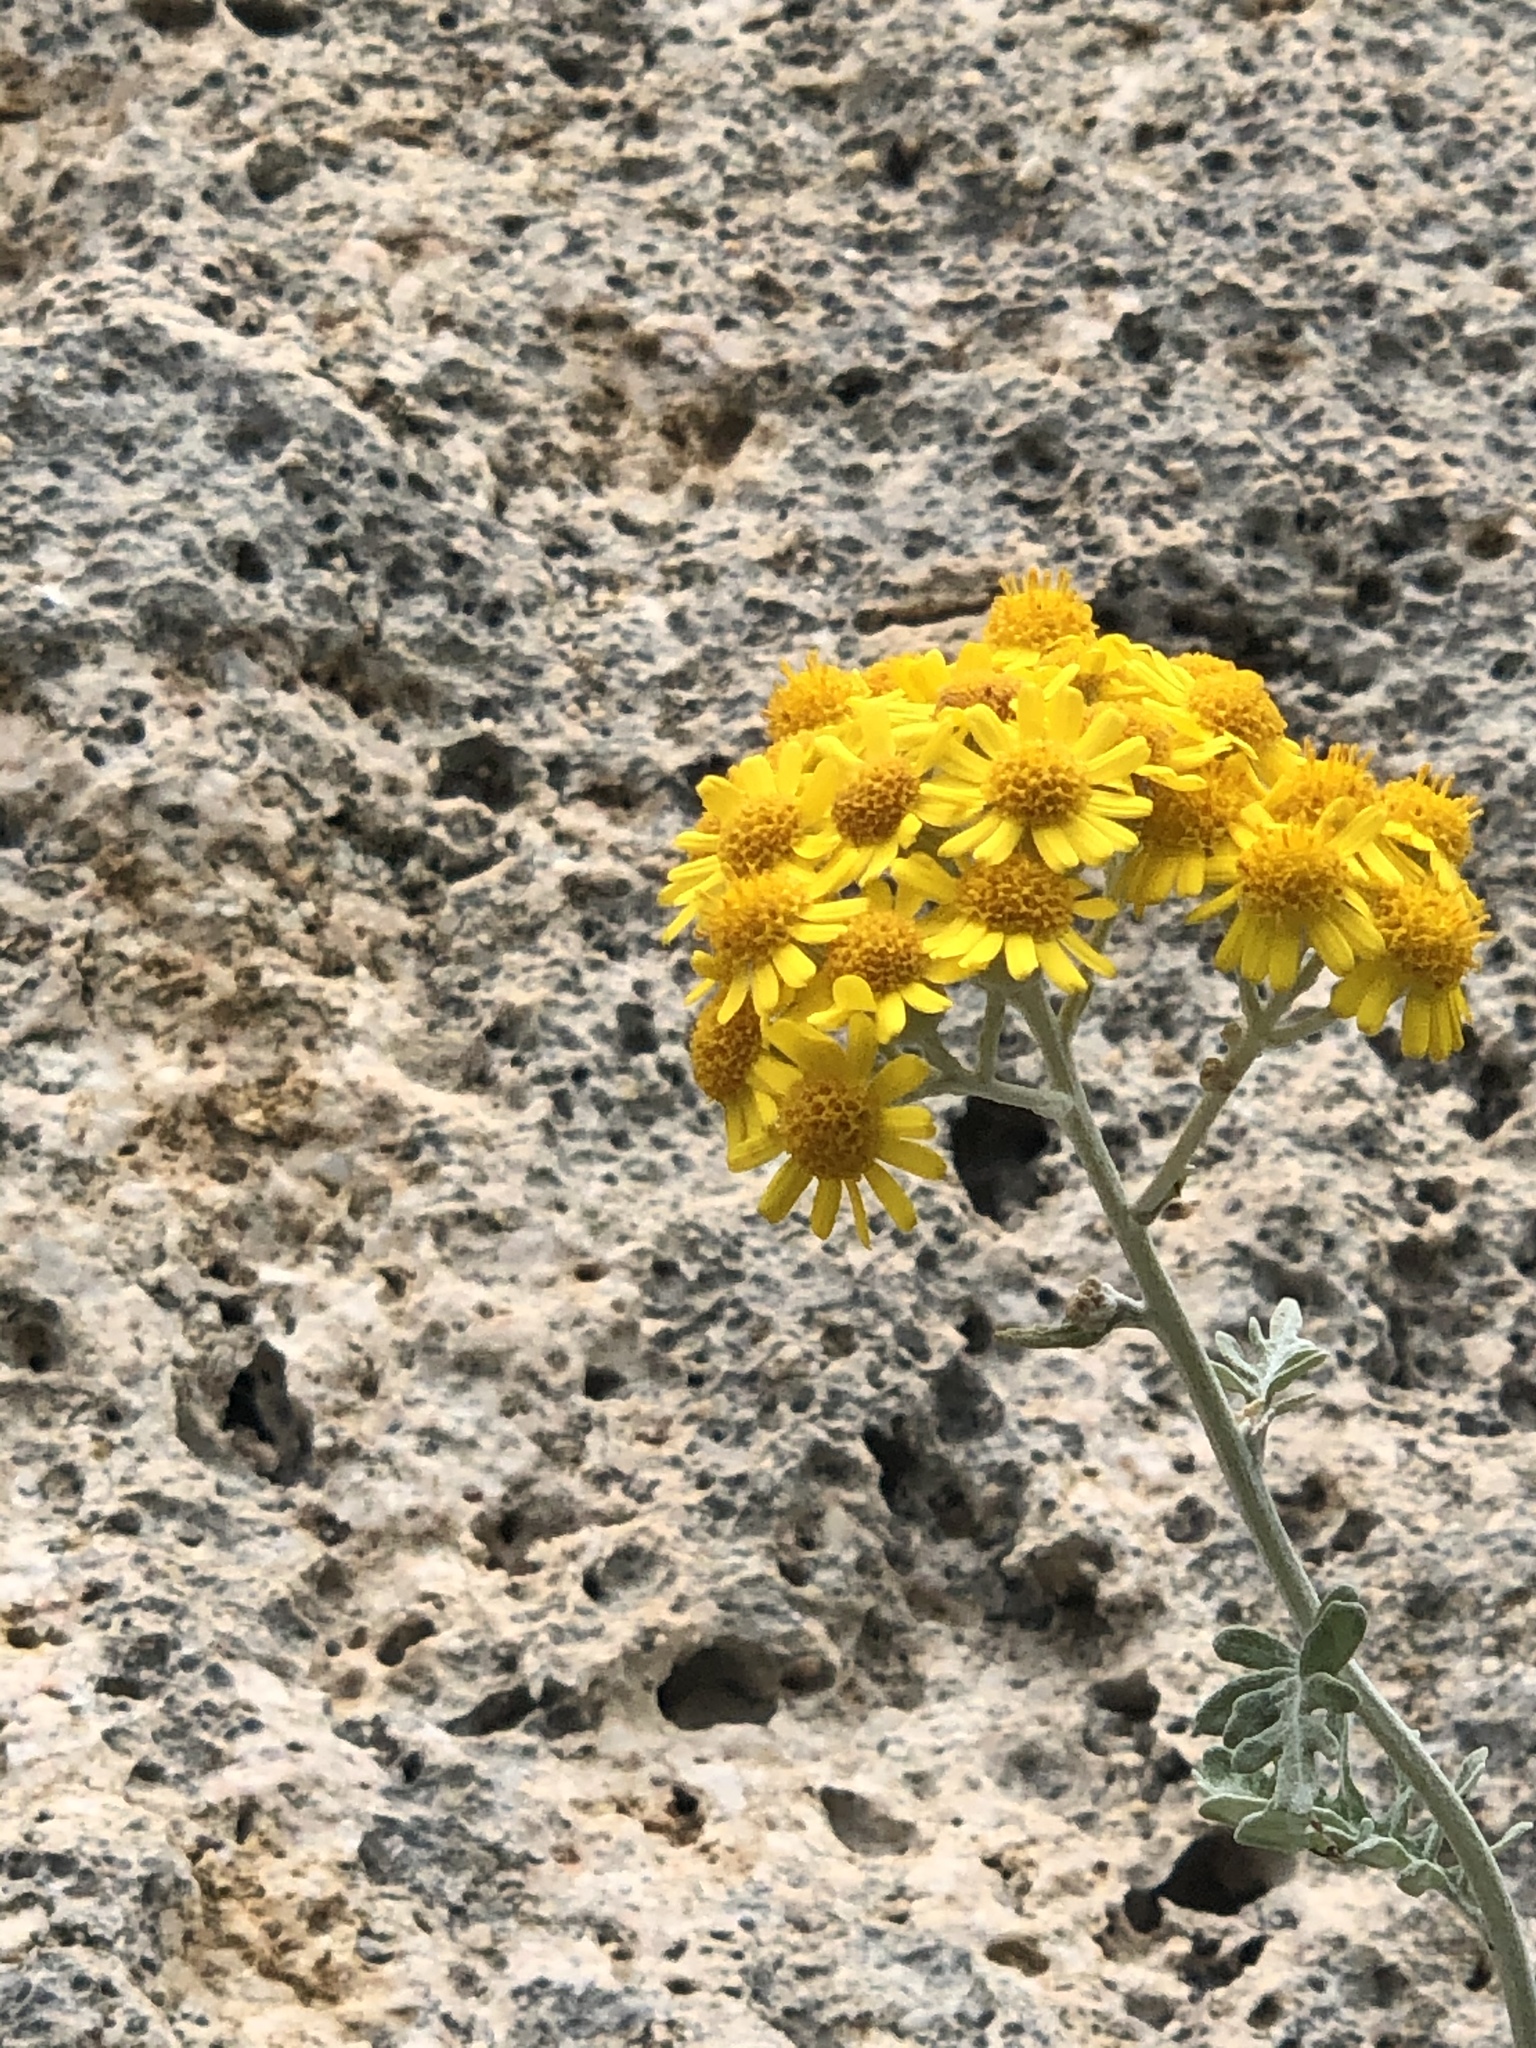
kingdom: Plantae
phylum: Tracheophyta
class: Magnoliopsida
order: Asterales
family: Asteraceae
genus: Jacobaea
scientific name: Jacobaea maritima
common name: Silver ragwort
